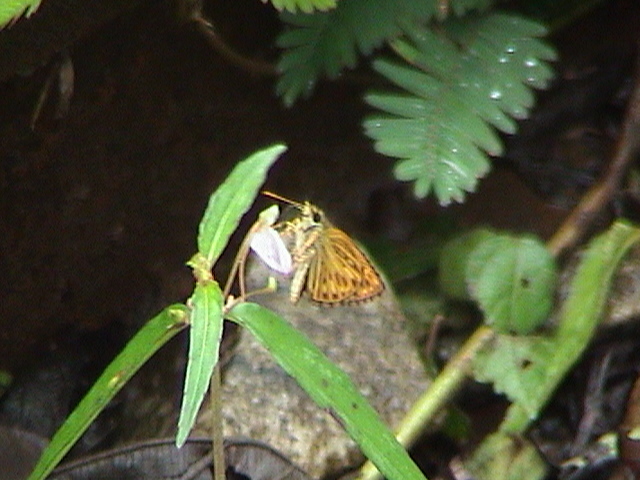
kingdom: Animalia
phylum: Arthropoda
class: Insecta
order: Lepidoptera
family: Hesperiidae
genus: Baracus
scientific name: Baracus vittatus
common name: Hedge-hopper
